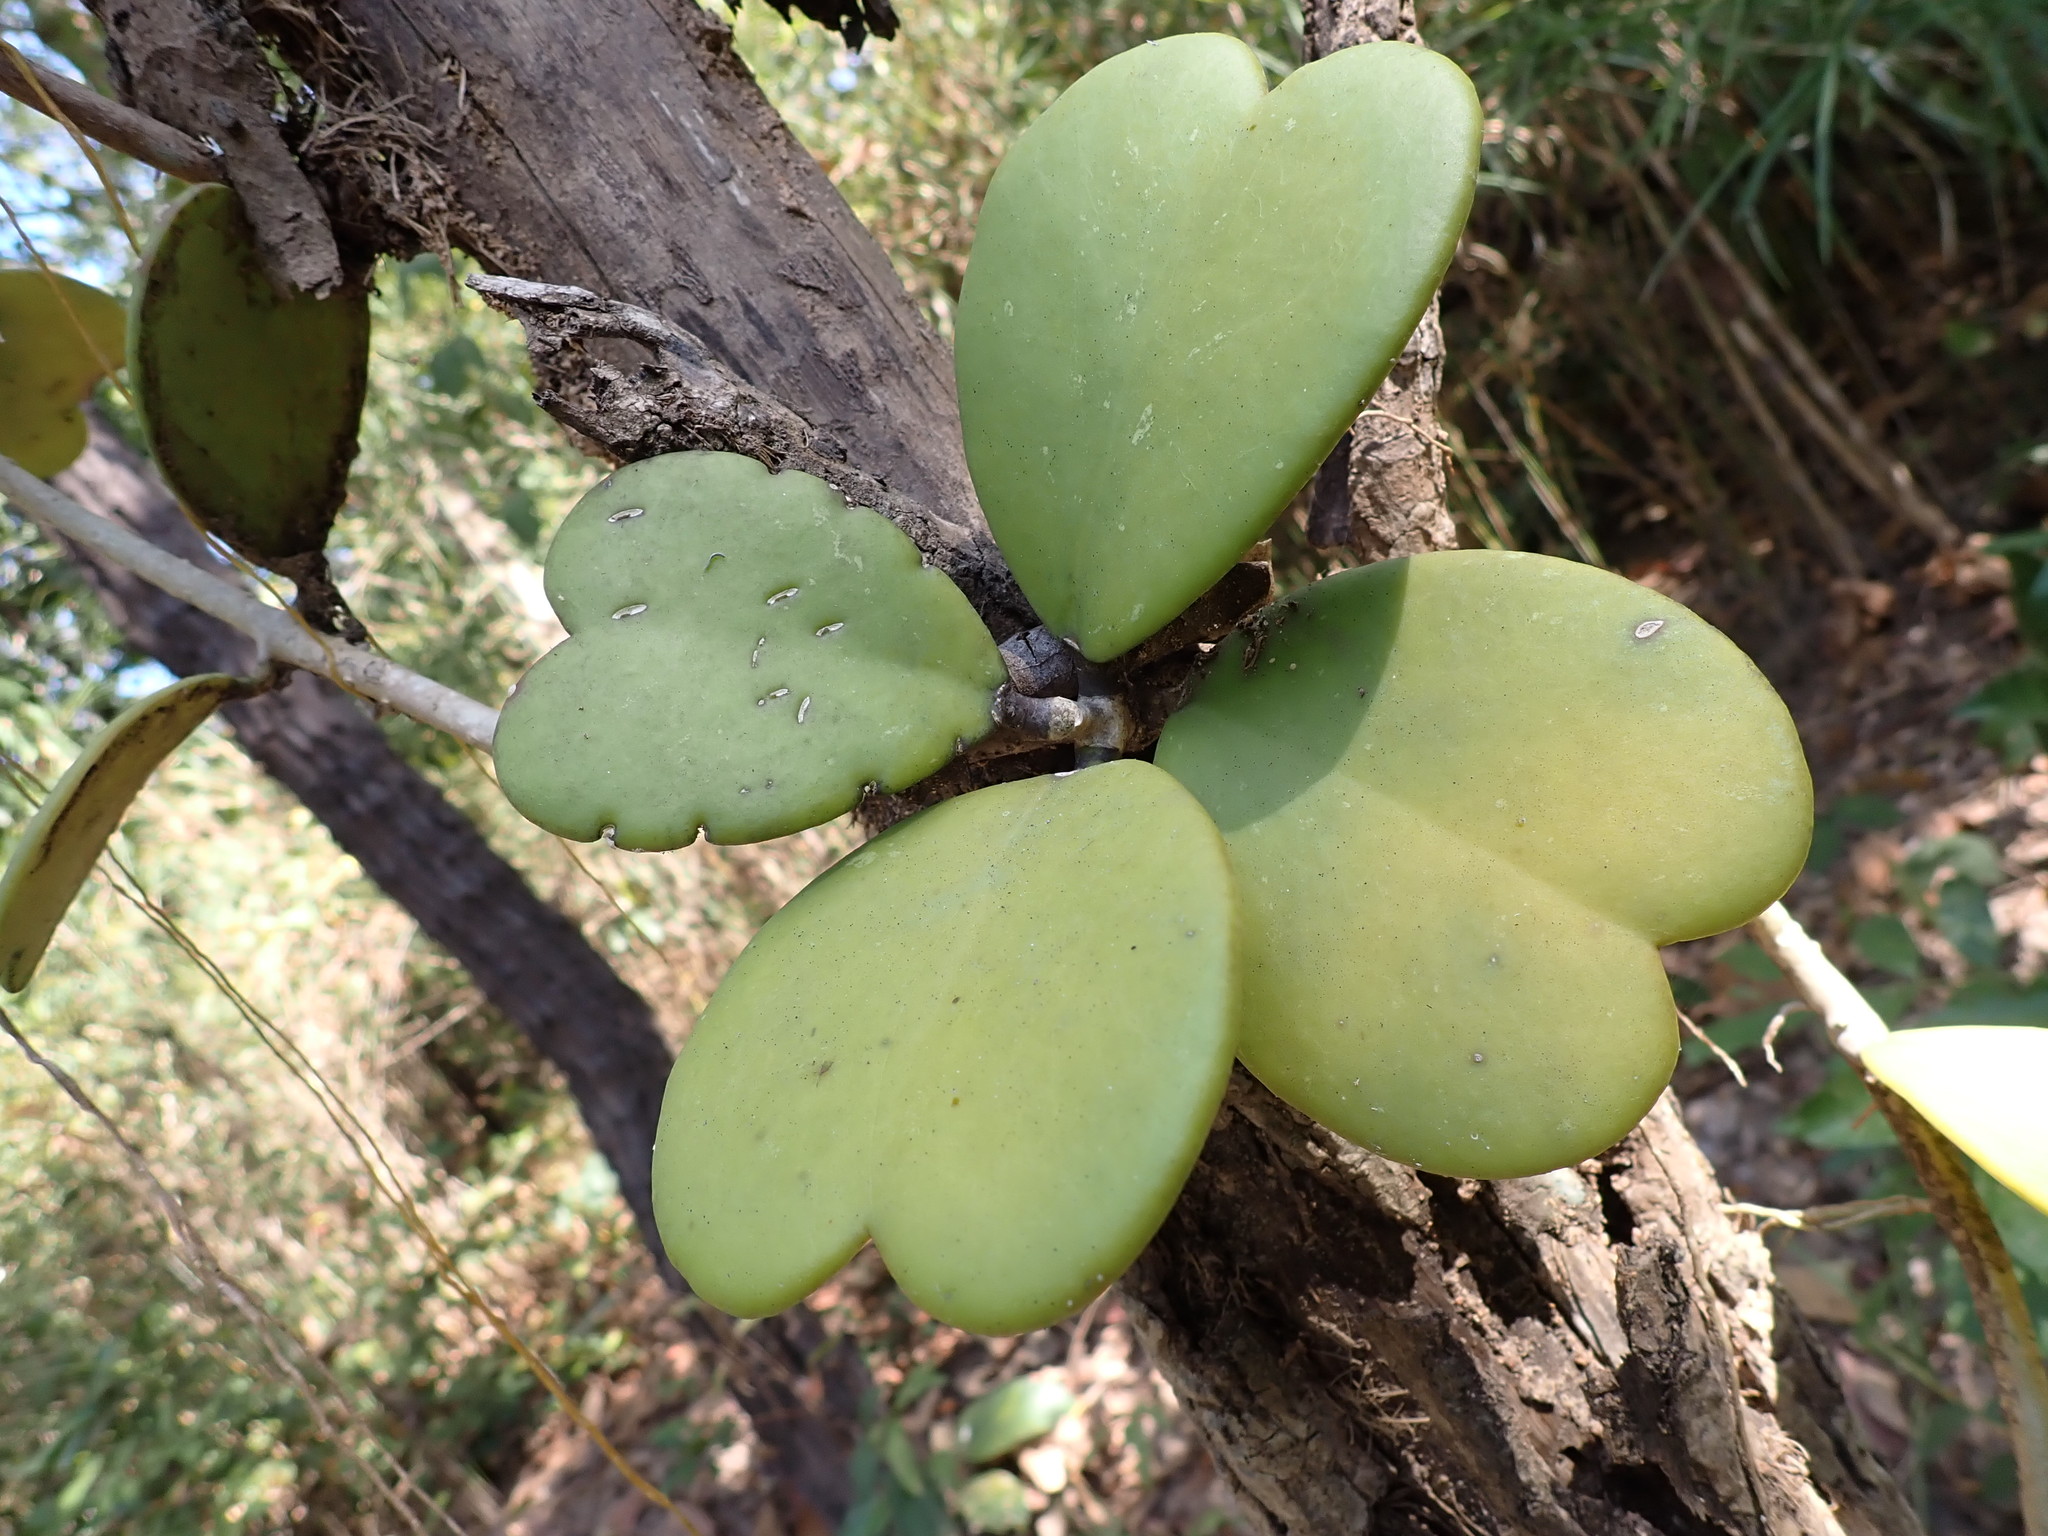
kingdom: Plantae
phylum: Tracheophyta
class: Magnoliopsida
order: Gentianales
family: Apocynaceae
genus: Hoya
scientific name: Hoya kerrii
